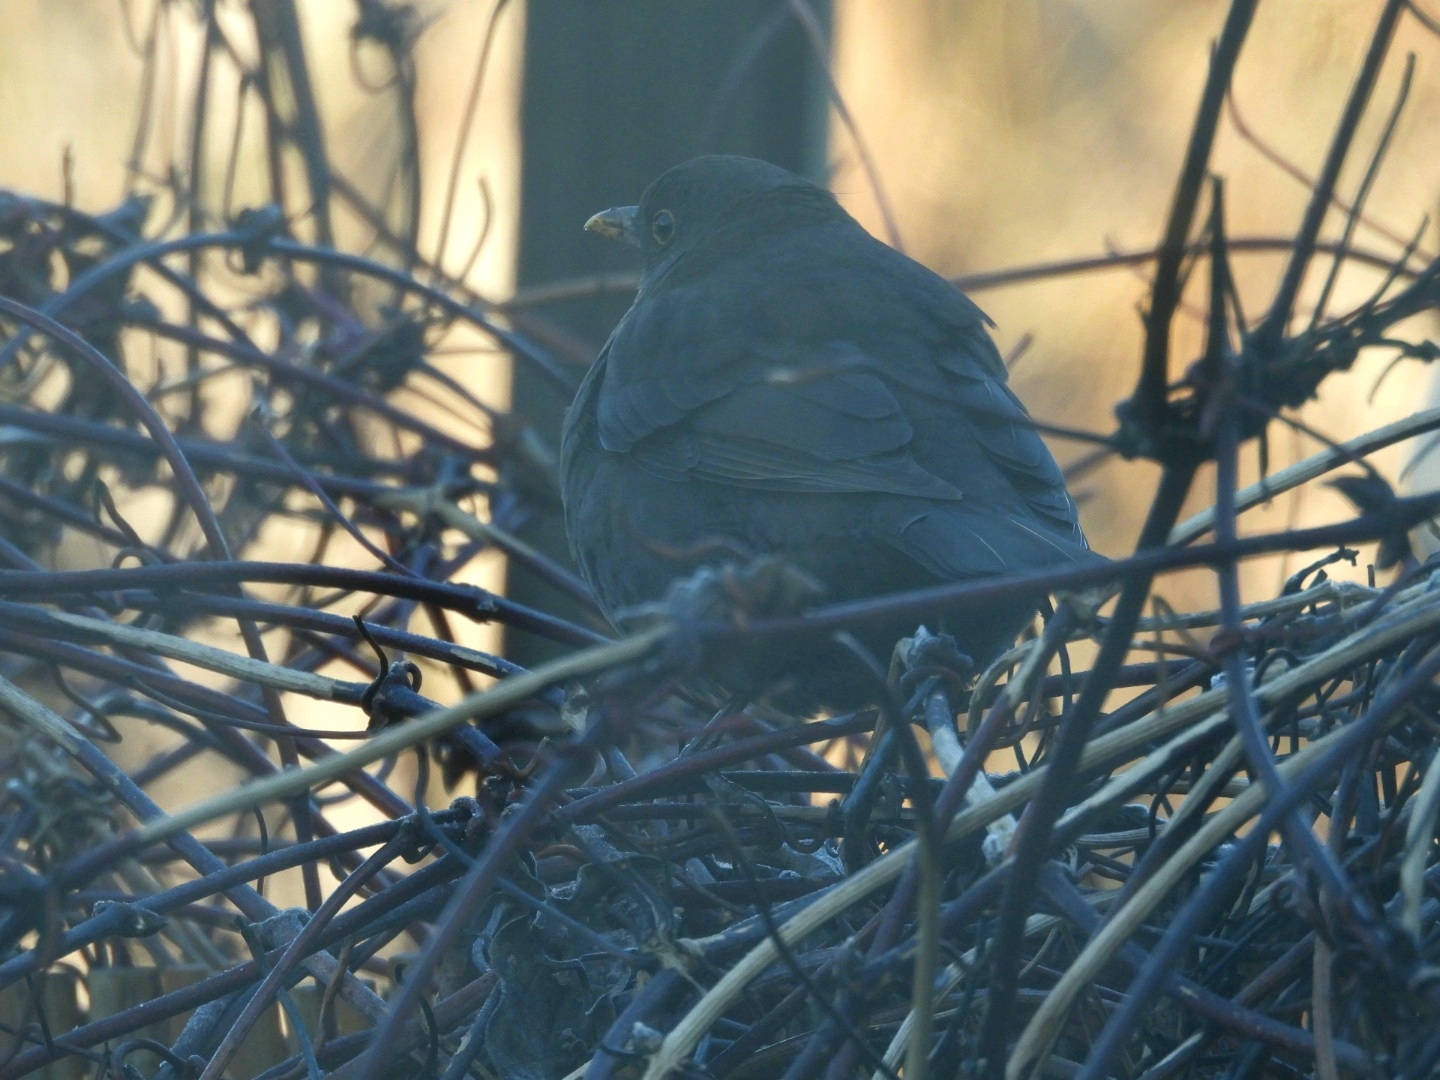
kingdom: Animalia
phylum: Chordata
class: Aves
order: Passeriformes
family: Turdidae
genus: Turdus
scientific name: Turdus merula
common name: Common blackbird
